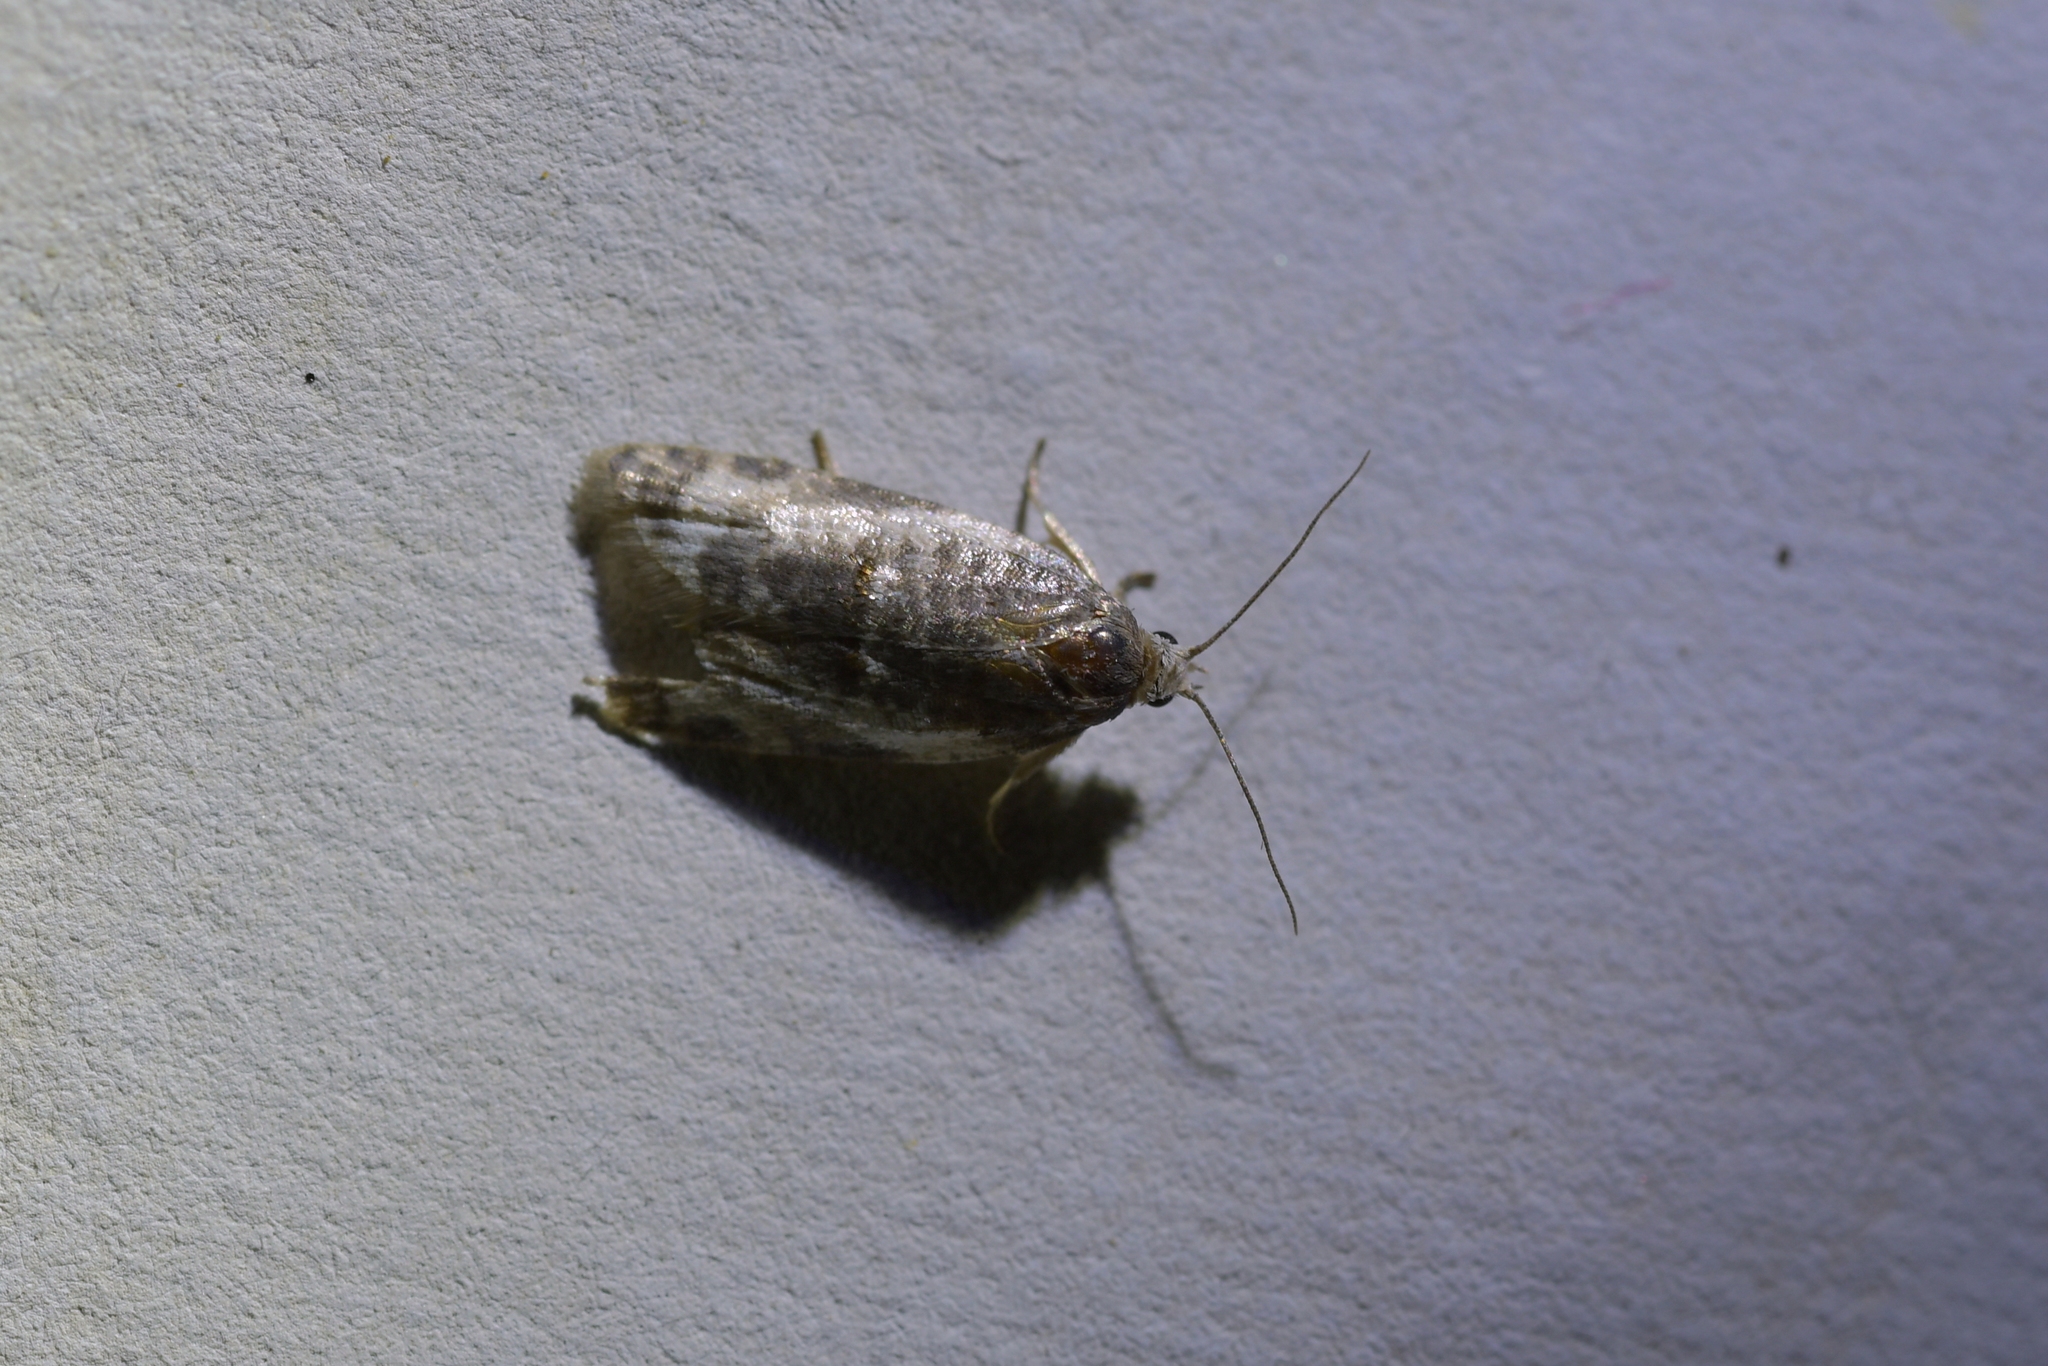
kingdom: Animalia
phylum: Arthropoda
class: Insecta
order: Lepidoptera
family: Tortricidae
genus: Prothelymna
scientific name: Prothelymna niphostrota
